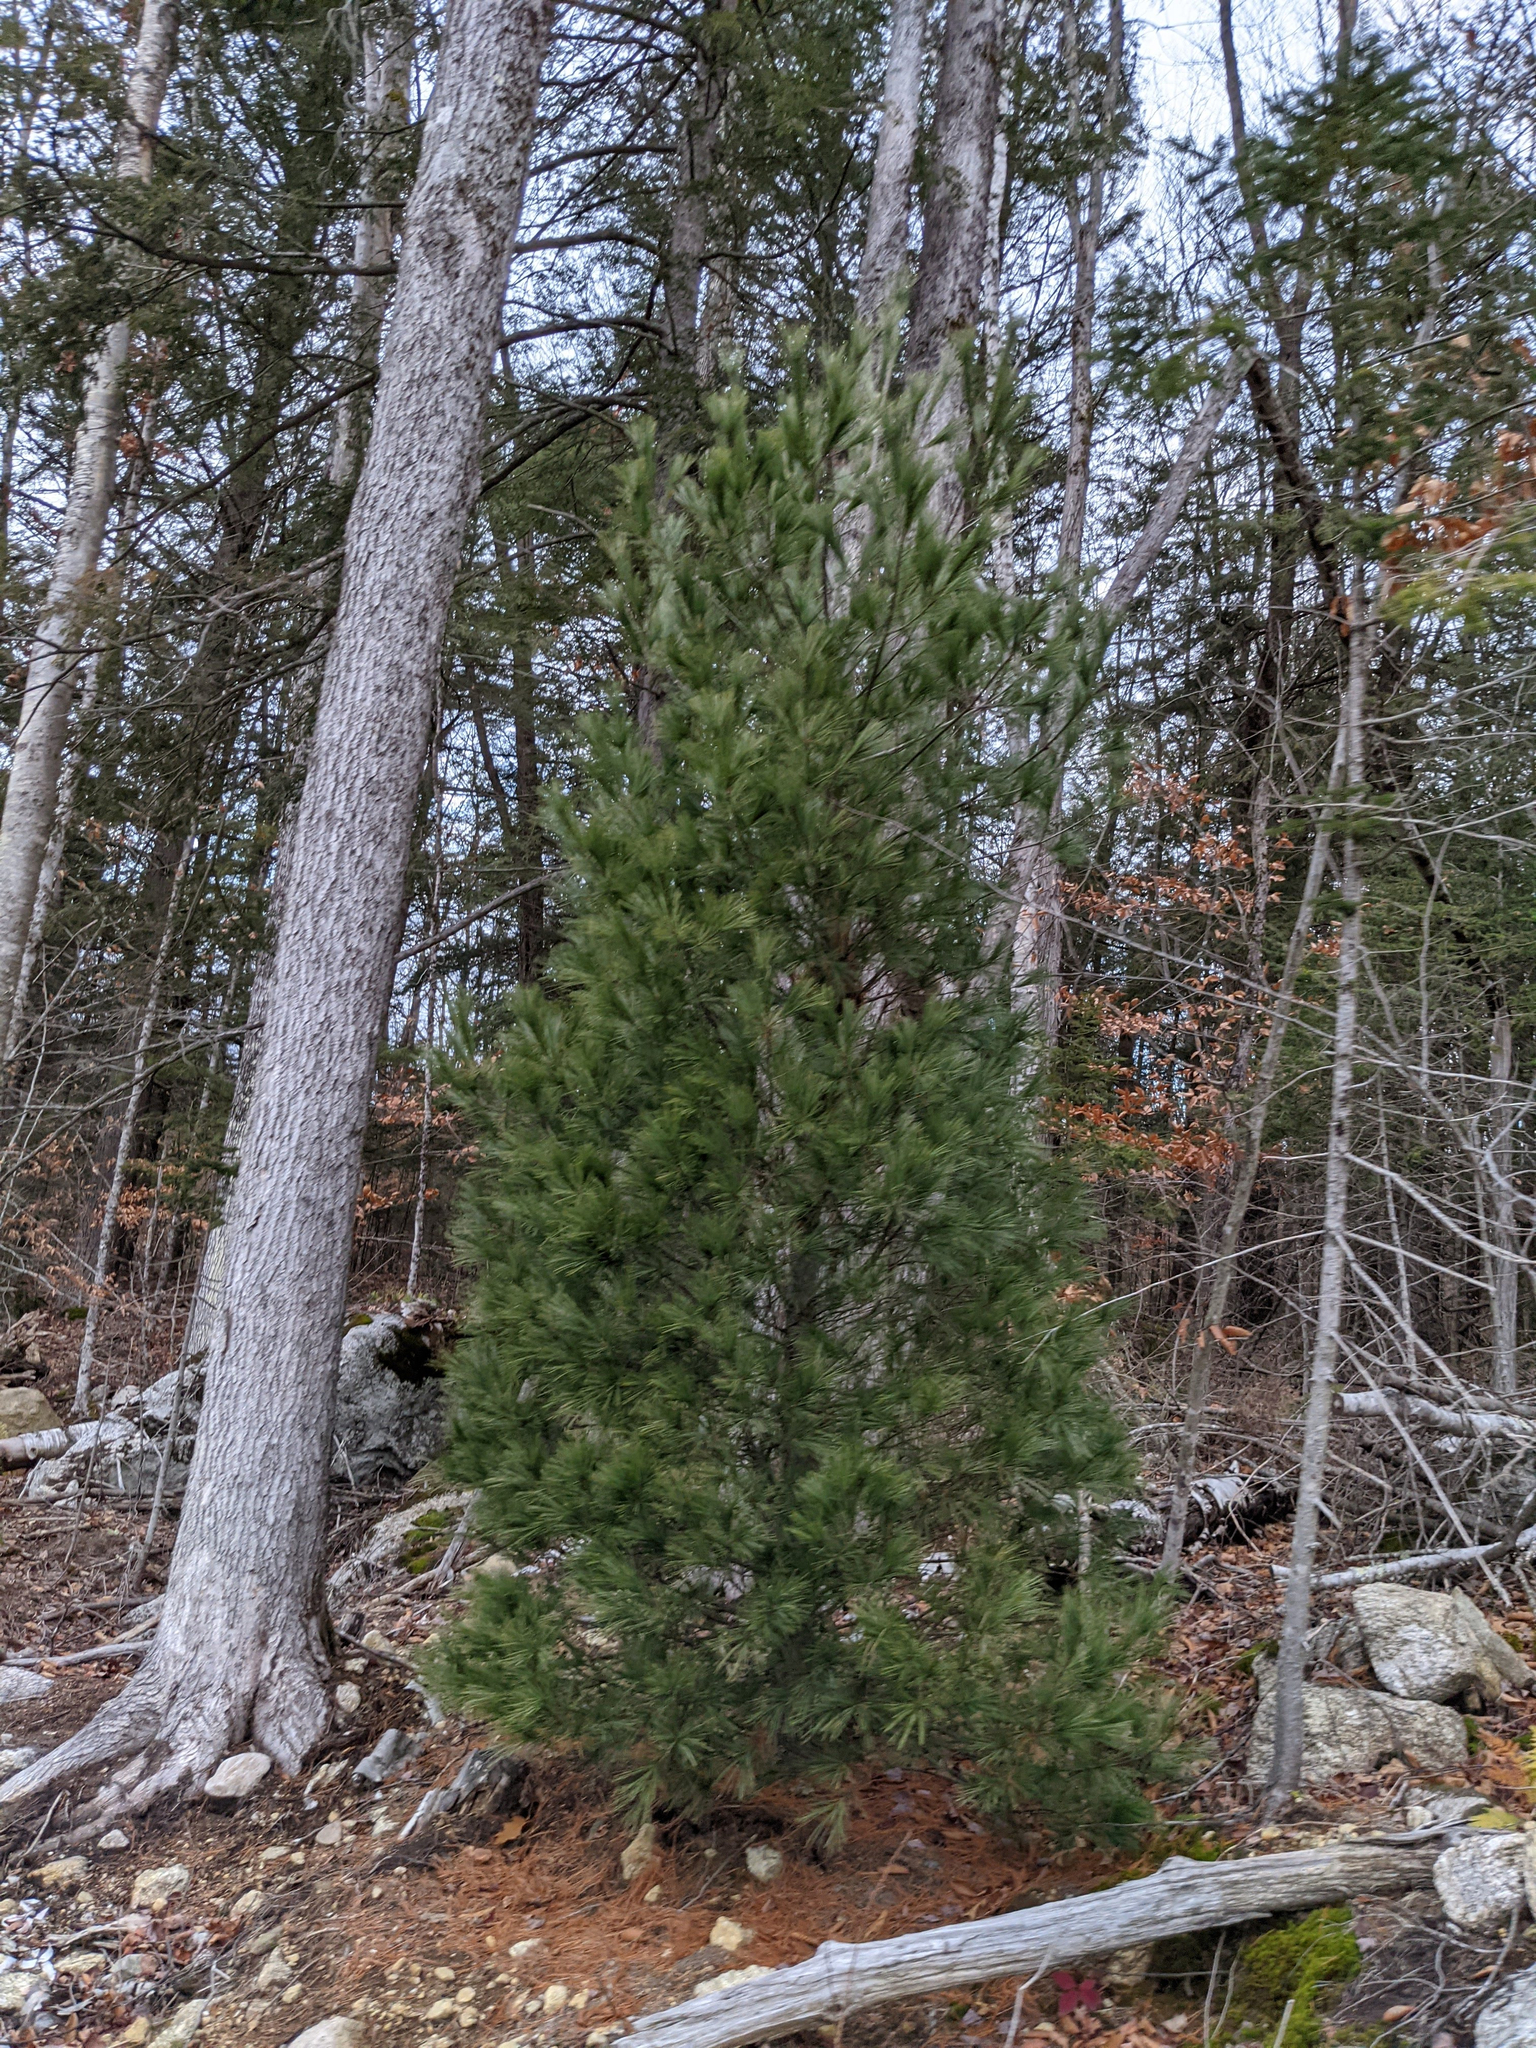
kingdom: Plantae
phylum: Tracheophyta
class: Pinopsida
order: Pinales
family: Pinaceae
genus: Pinus
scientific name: Pinus strobus
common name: Weymouth pine
